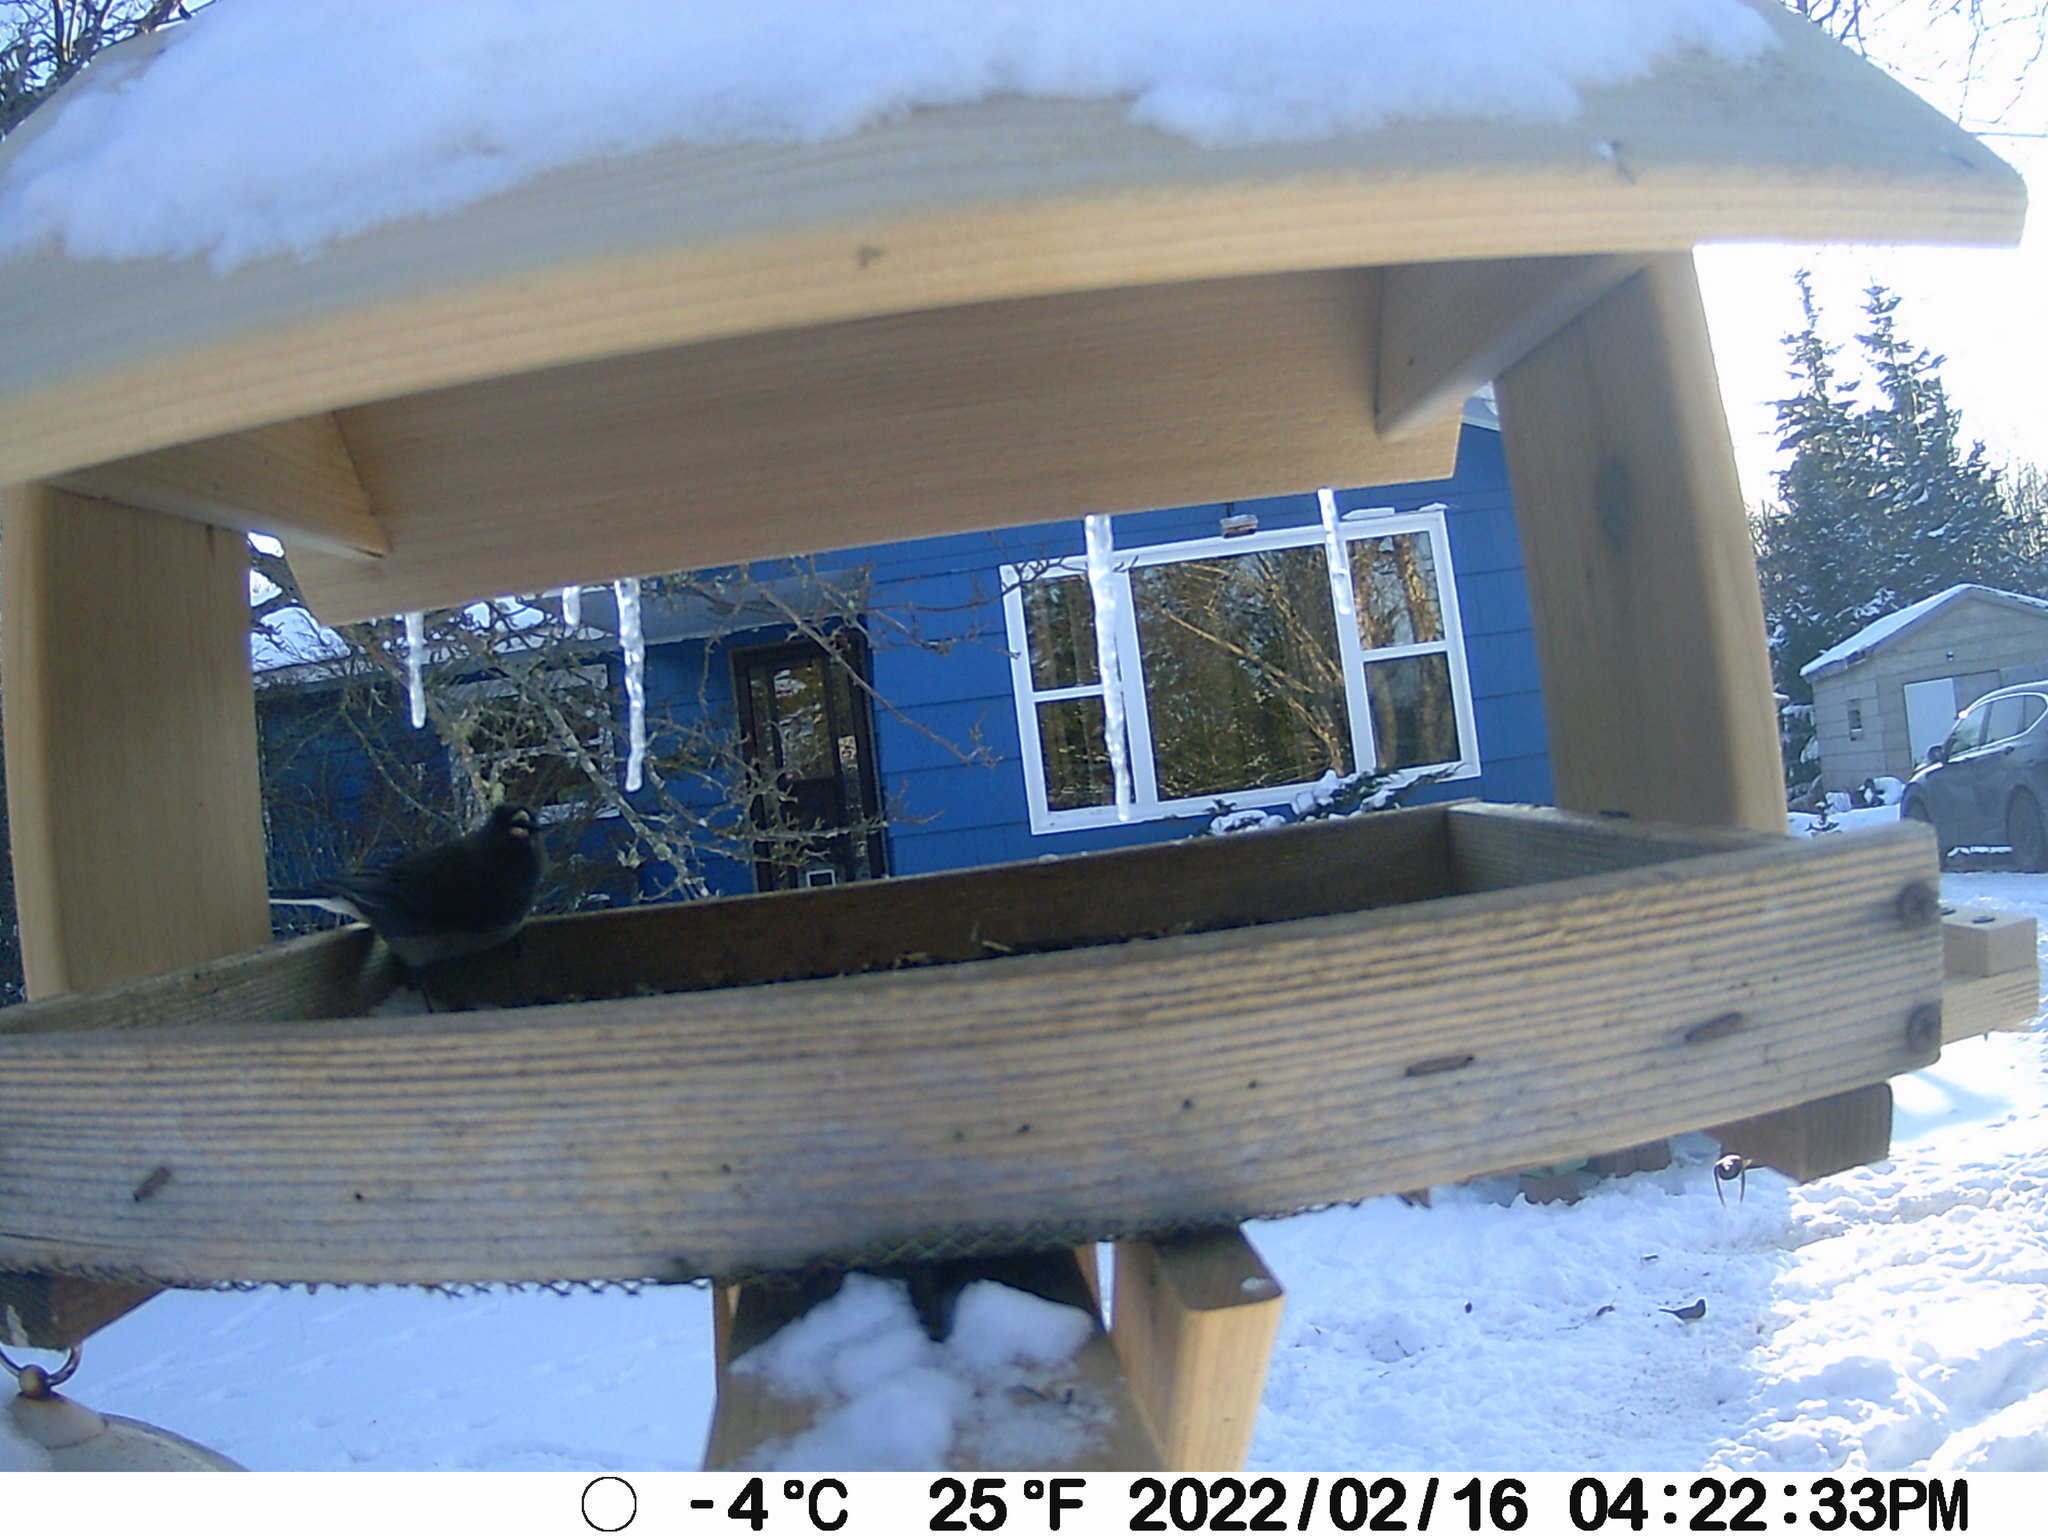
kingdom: Animalia
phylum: Chordata
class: Aves
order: Passeriformes
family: Passerellidae
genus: Junco
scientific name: Junco hyemalis
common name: Dark-eyed junco
